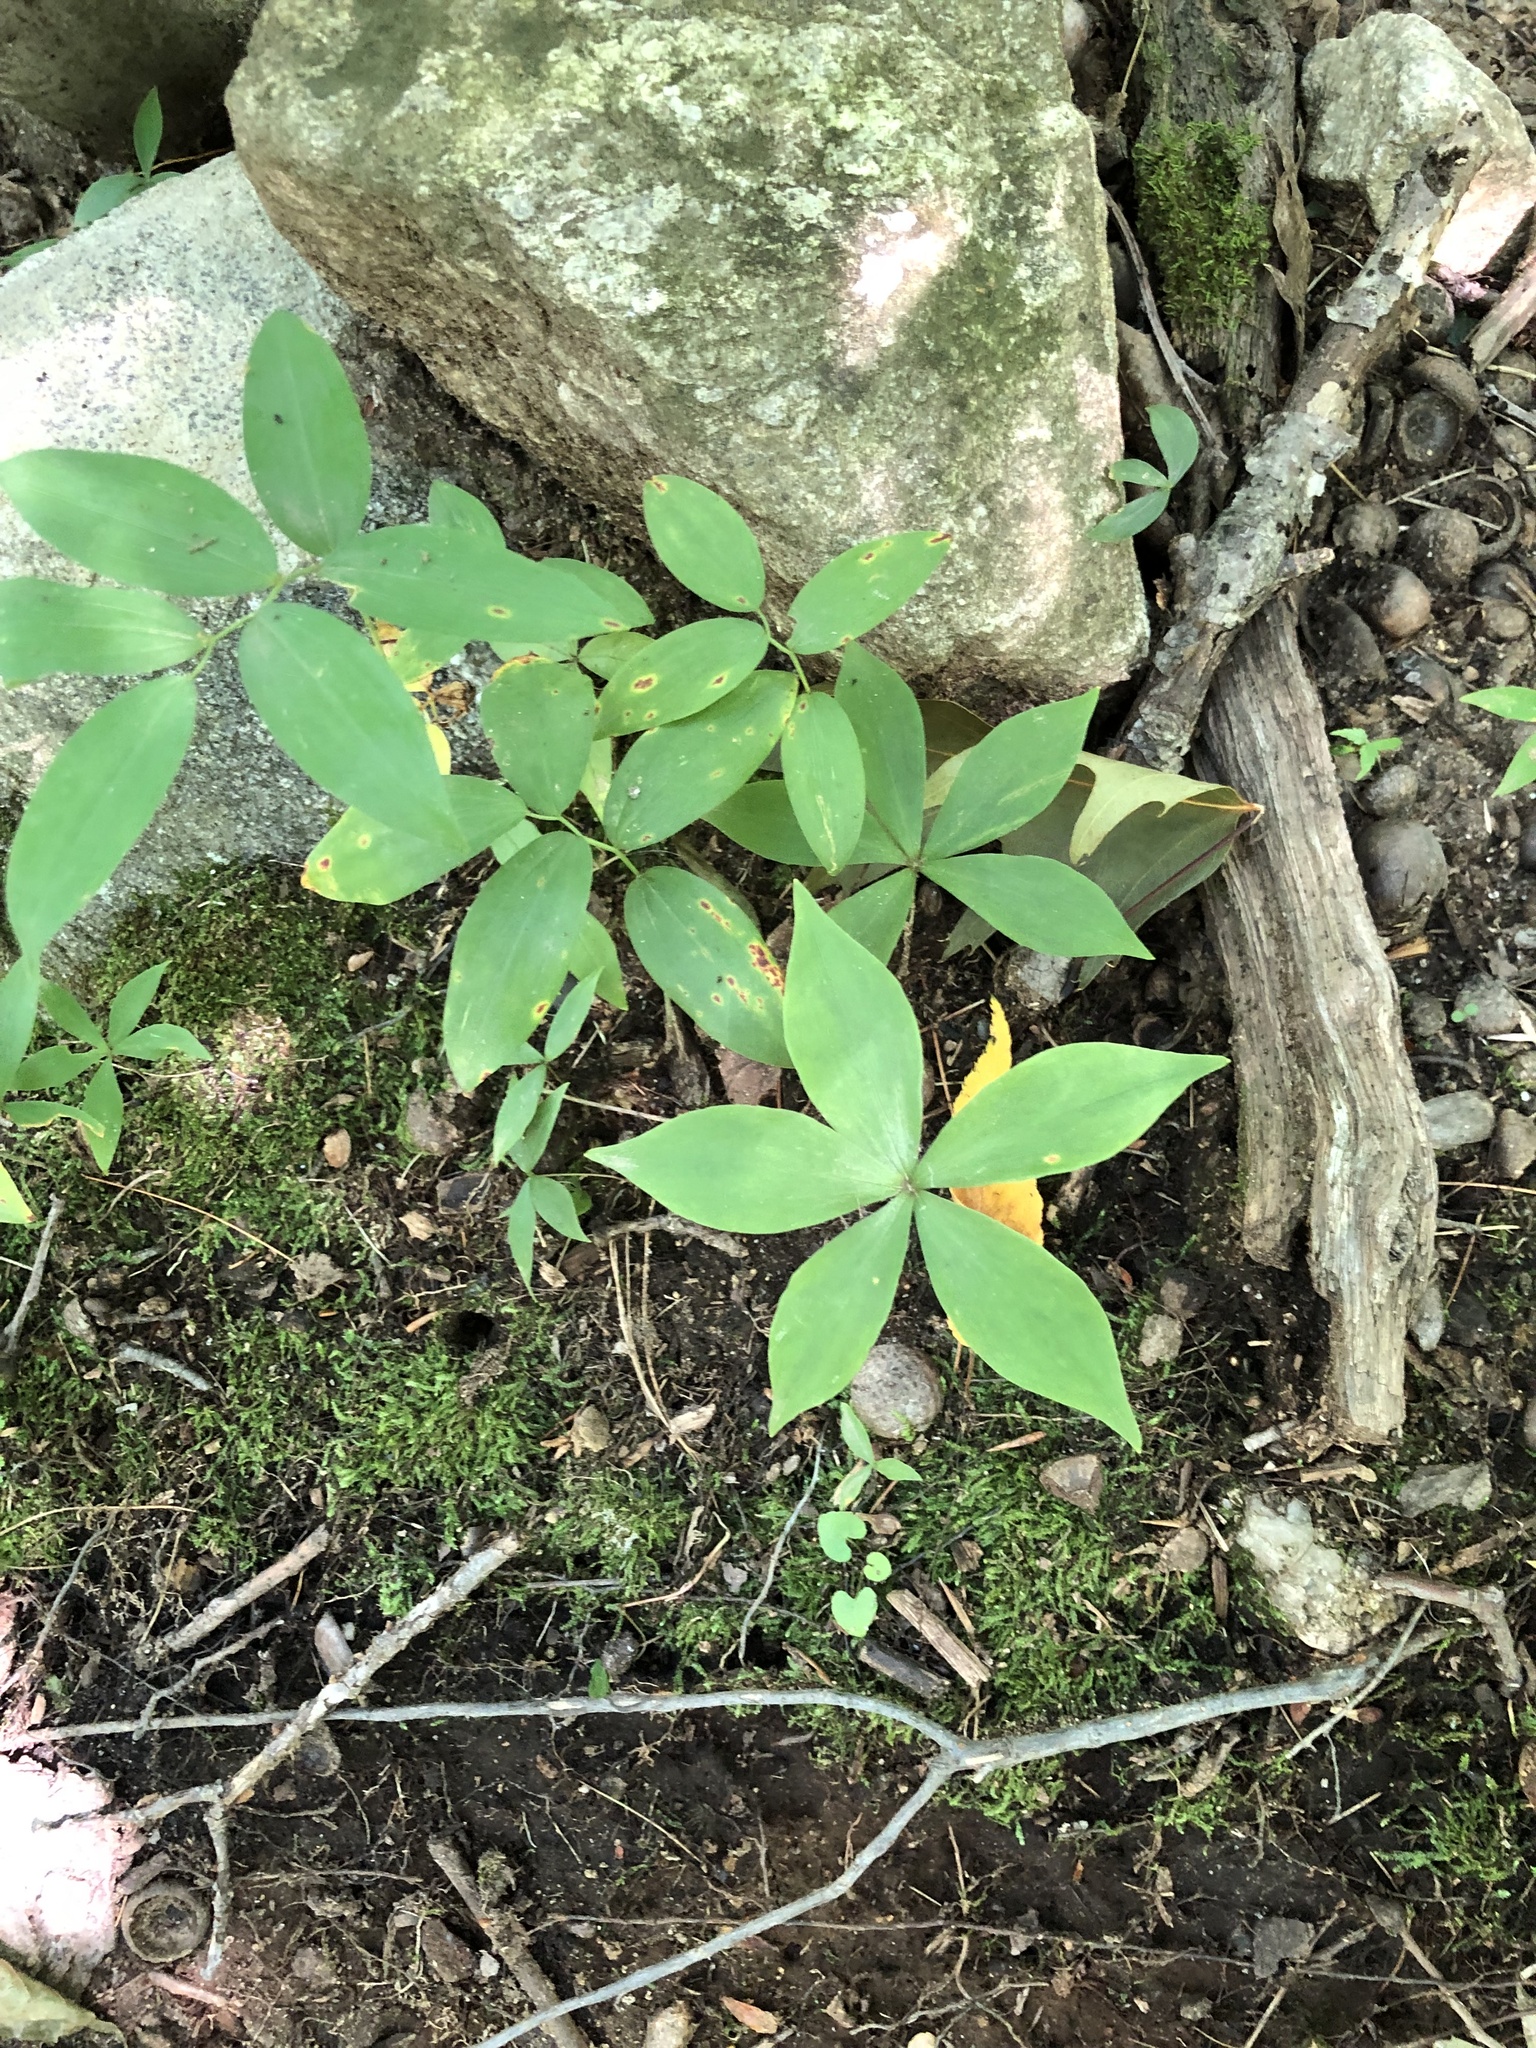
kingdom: Plantae
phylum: Tracheophyta
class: Liliopsida
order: Liliales
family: Liliaceae
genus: Medeola
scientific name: Medeola virginiana
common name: Indian cucumber-root
